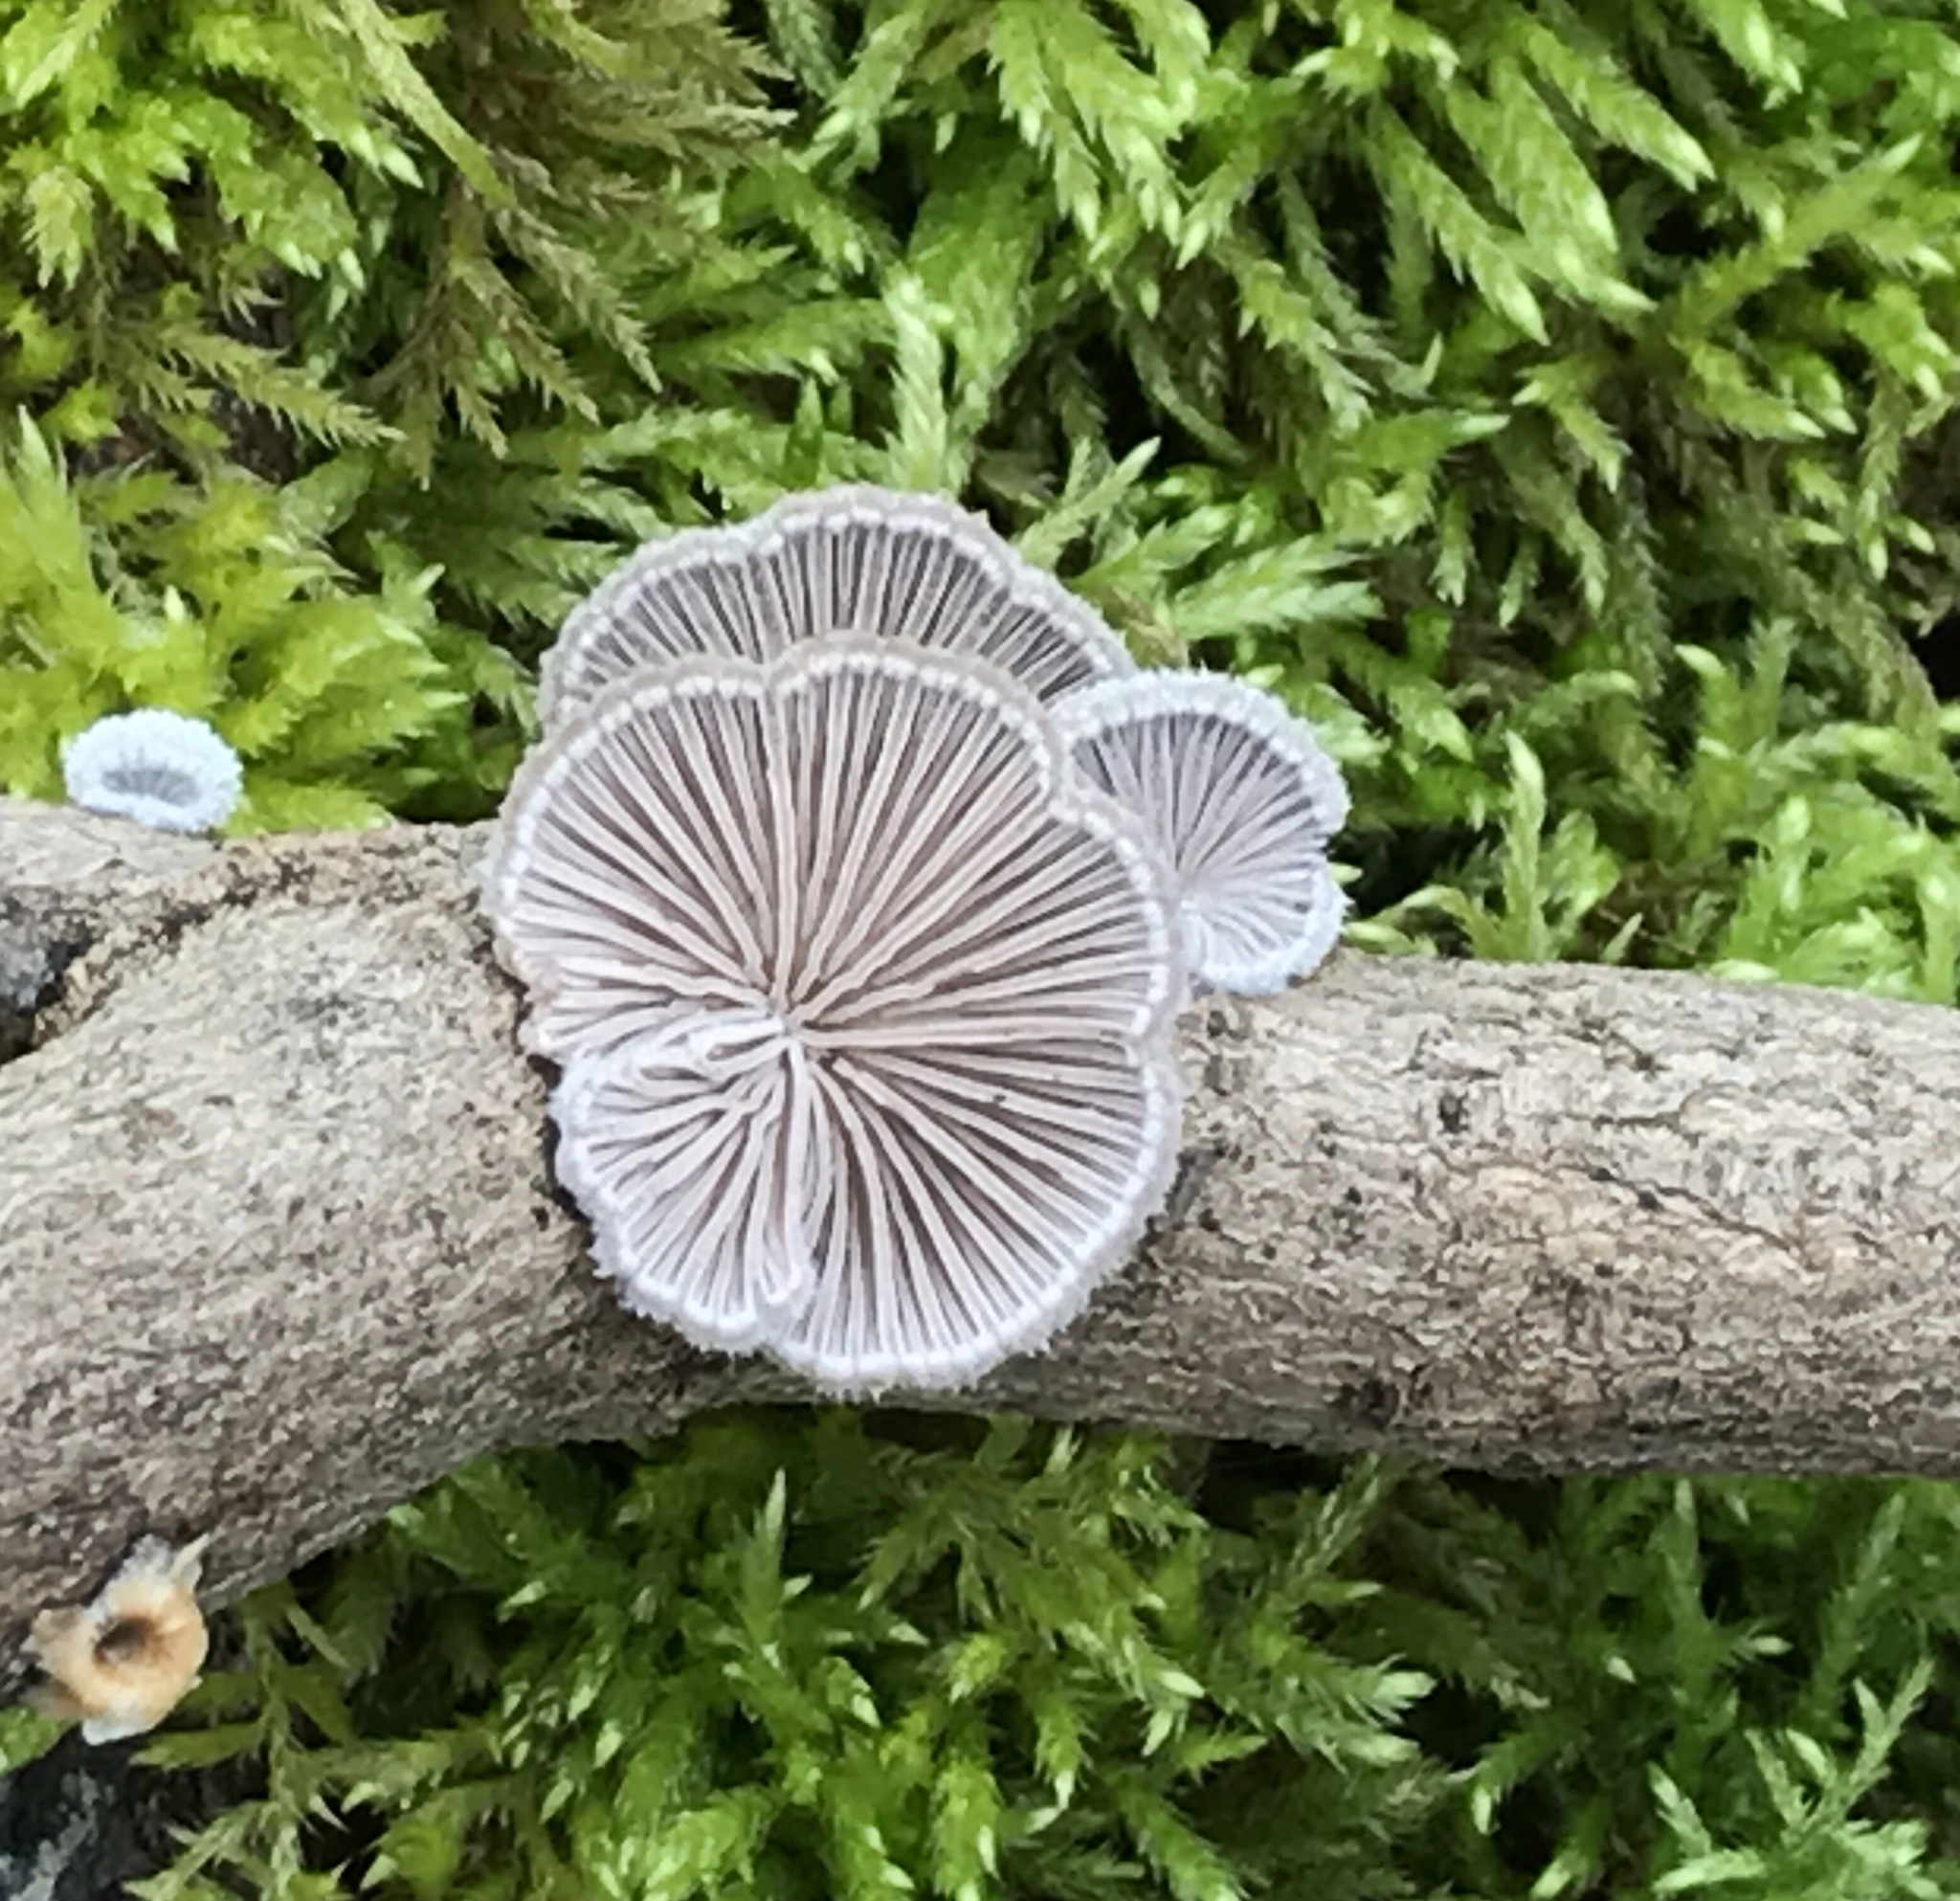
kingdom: Fungi
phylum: Basidiomycota
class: Agaricomycetes
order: Agaricales
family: Schizophyllaceae
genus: Schizophyllum
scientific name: Schizophyllum commune
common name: Common porecrust
